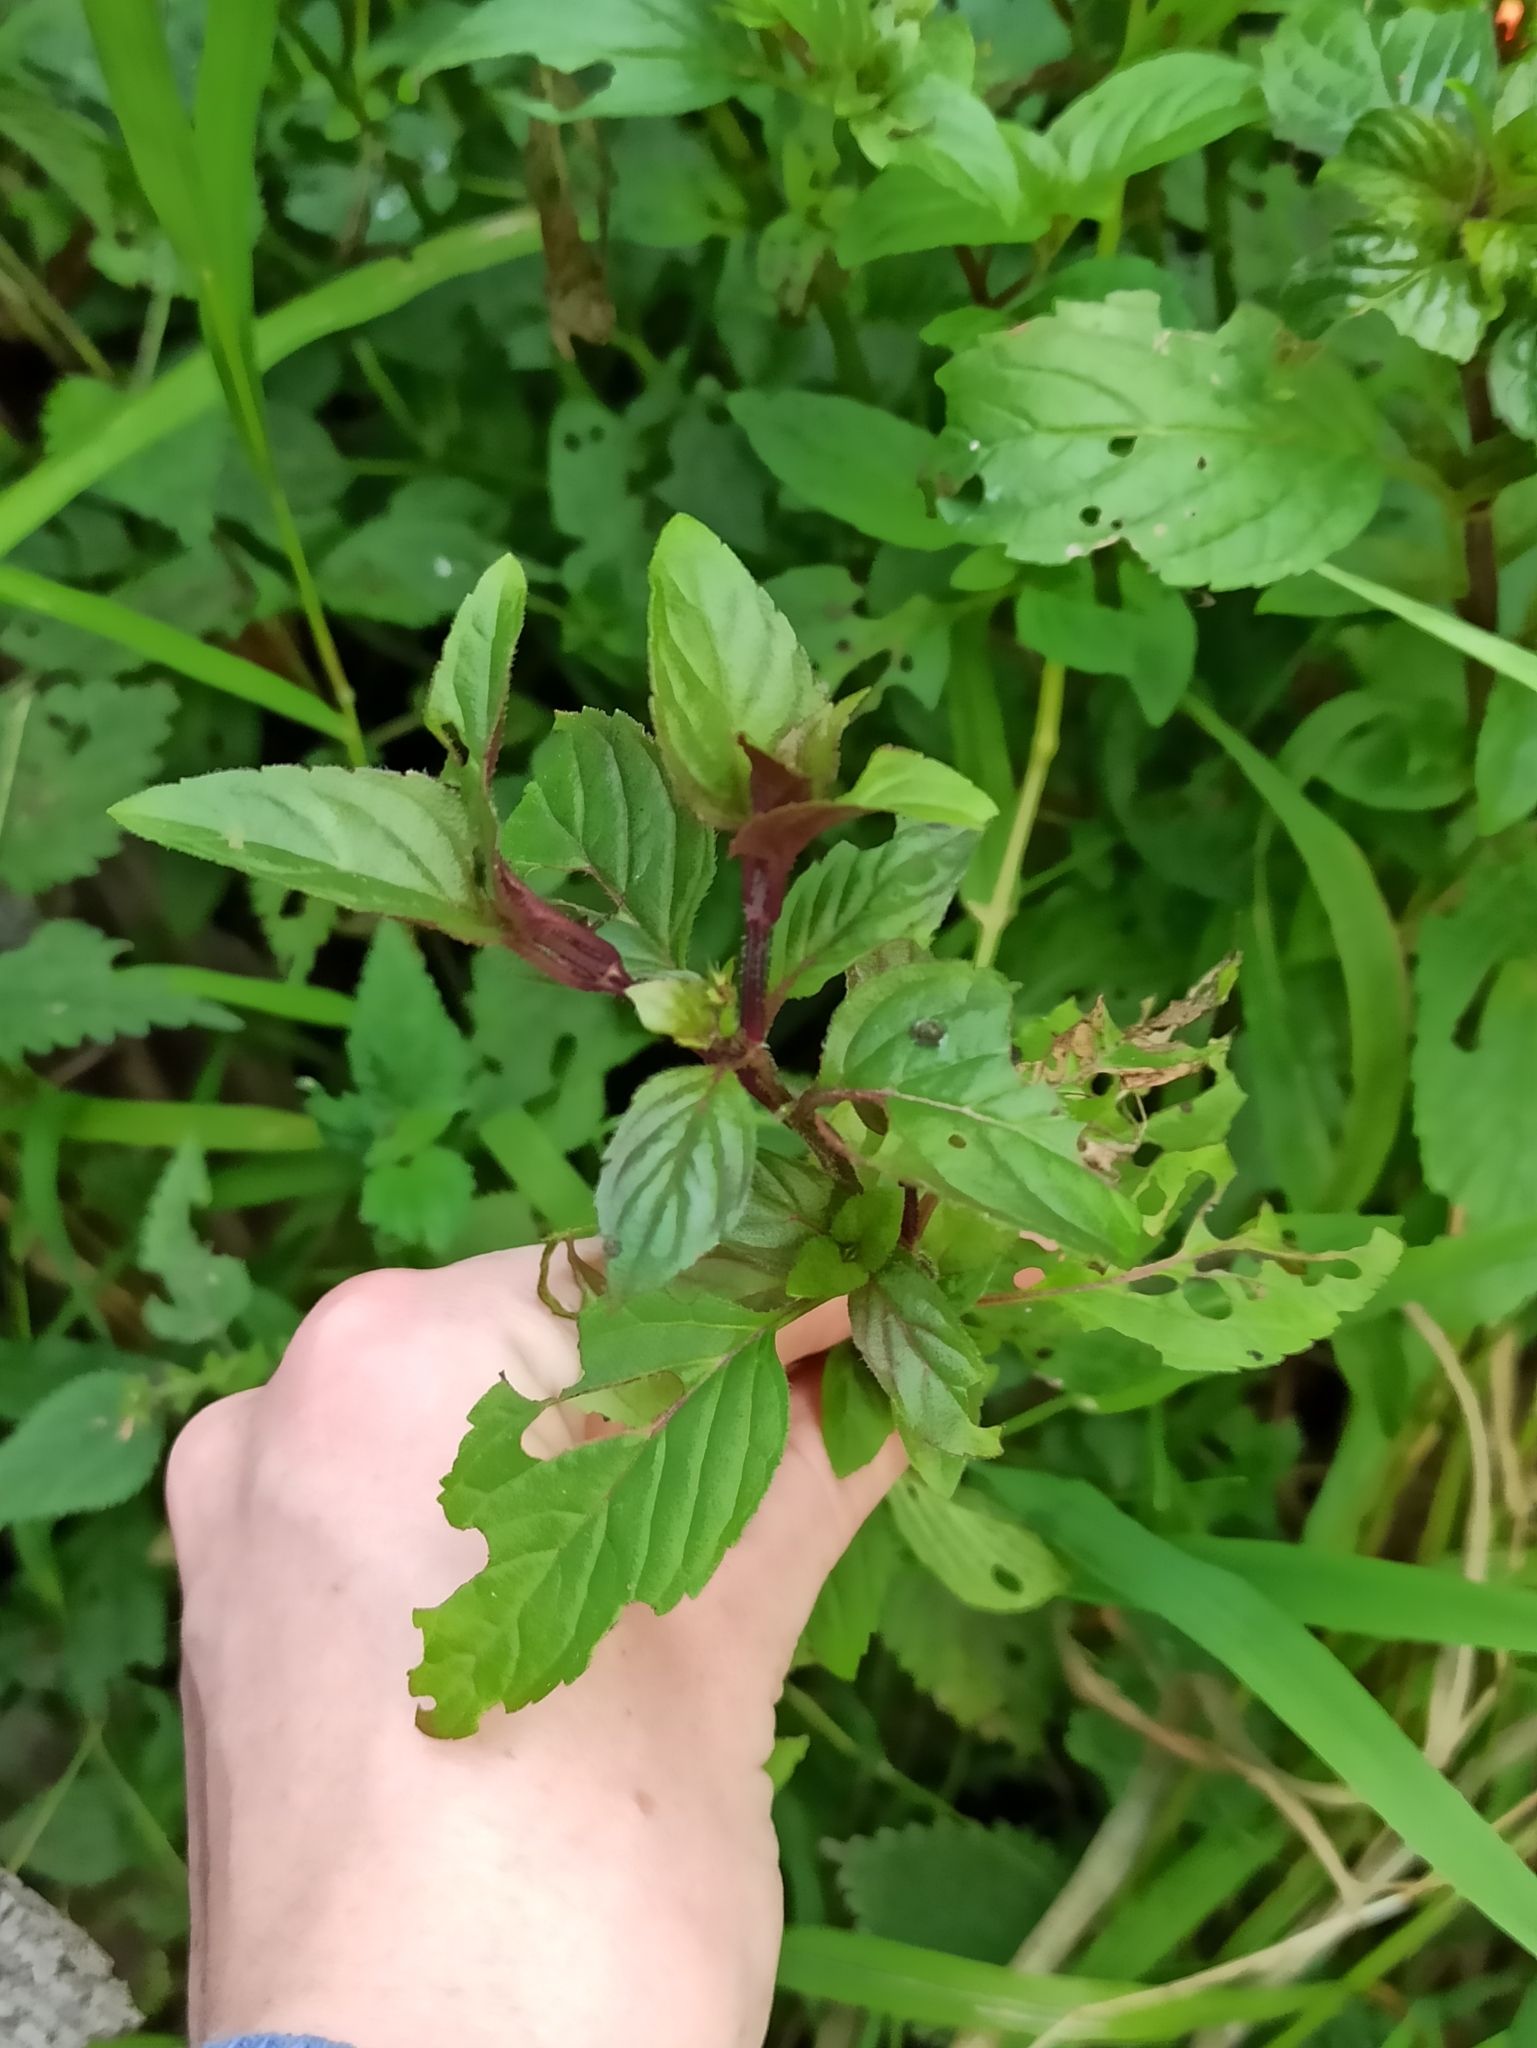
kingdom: Plantae
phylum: Tracheophyta
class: Magnoliopsida
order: Lamiales
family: Lamiaceae
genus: Mentha
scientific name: Mentha arvensis
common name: Corn mint
